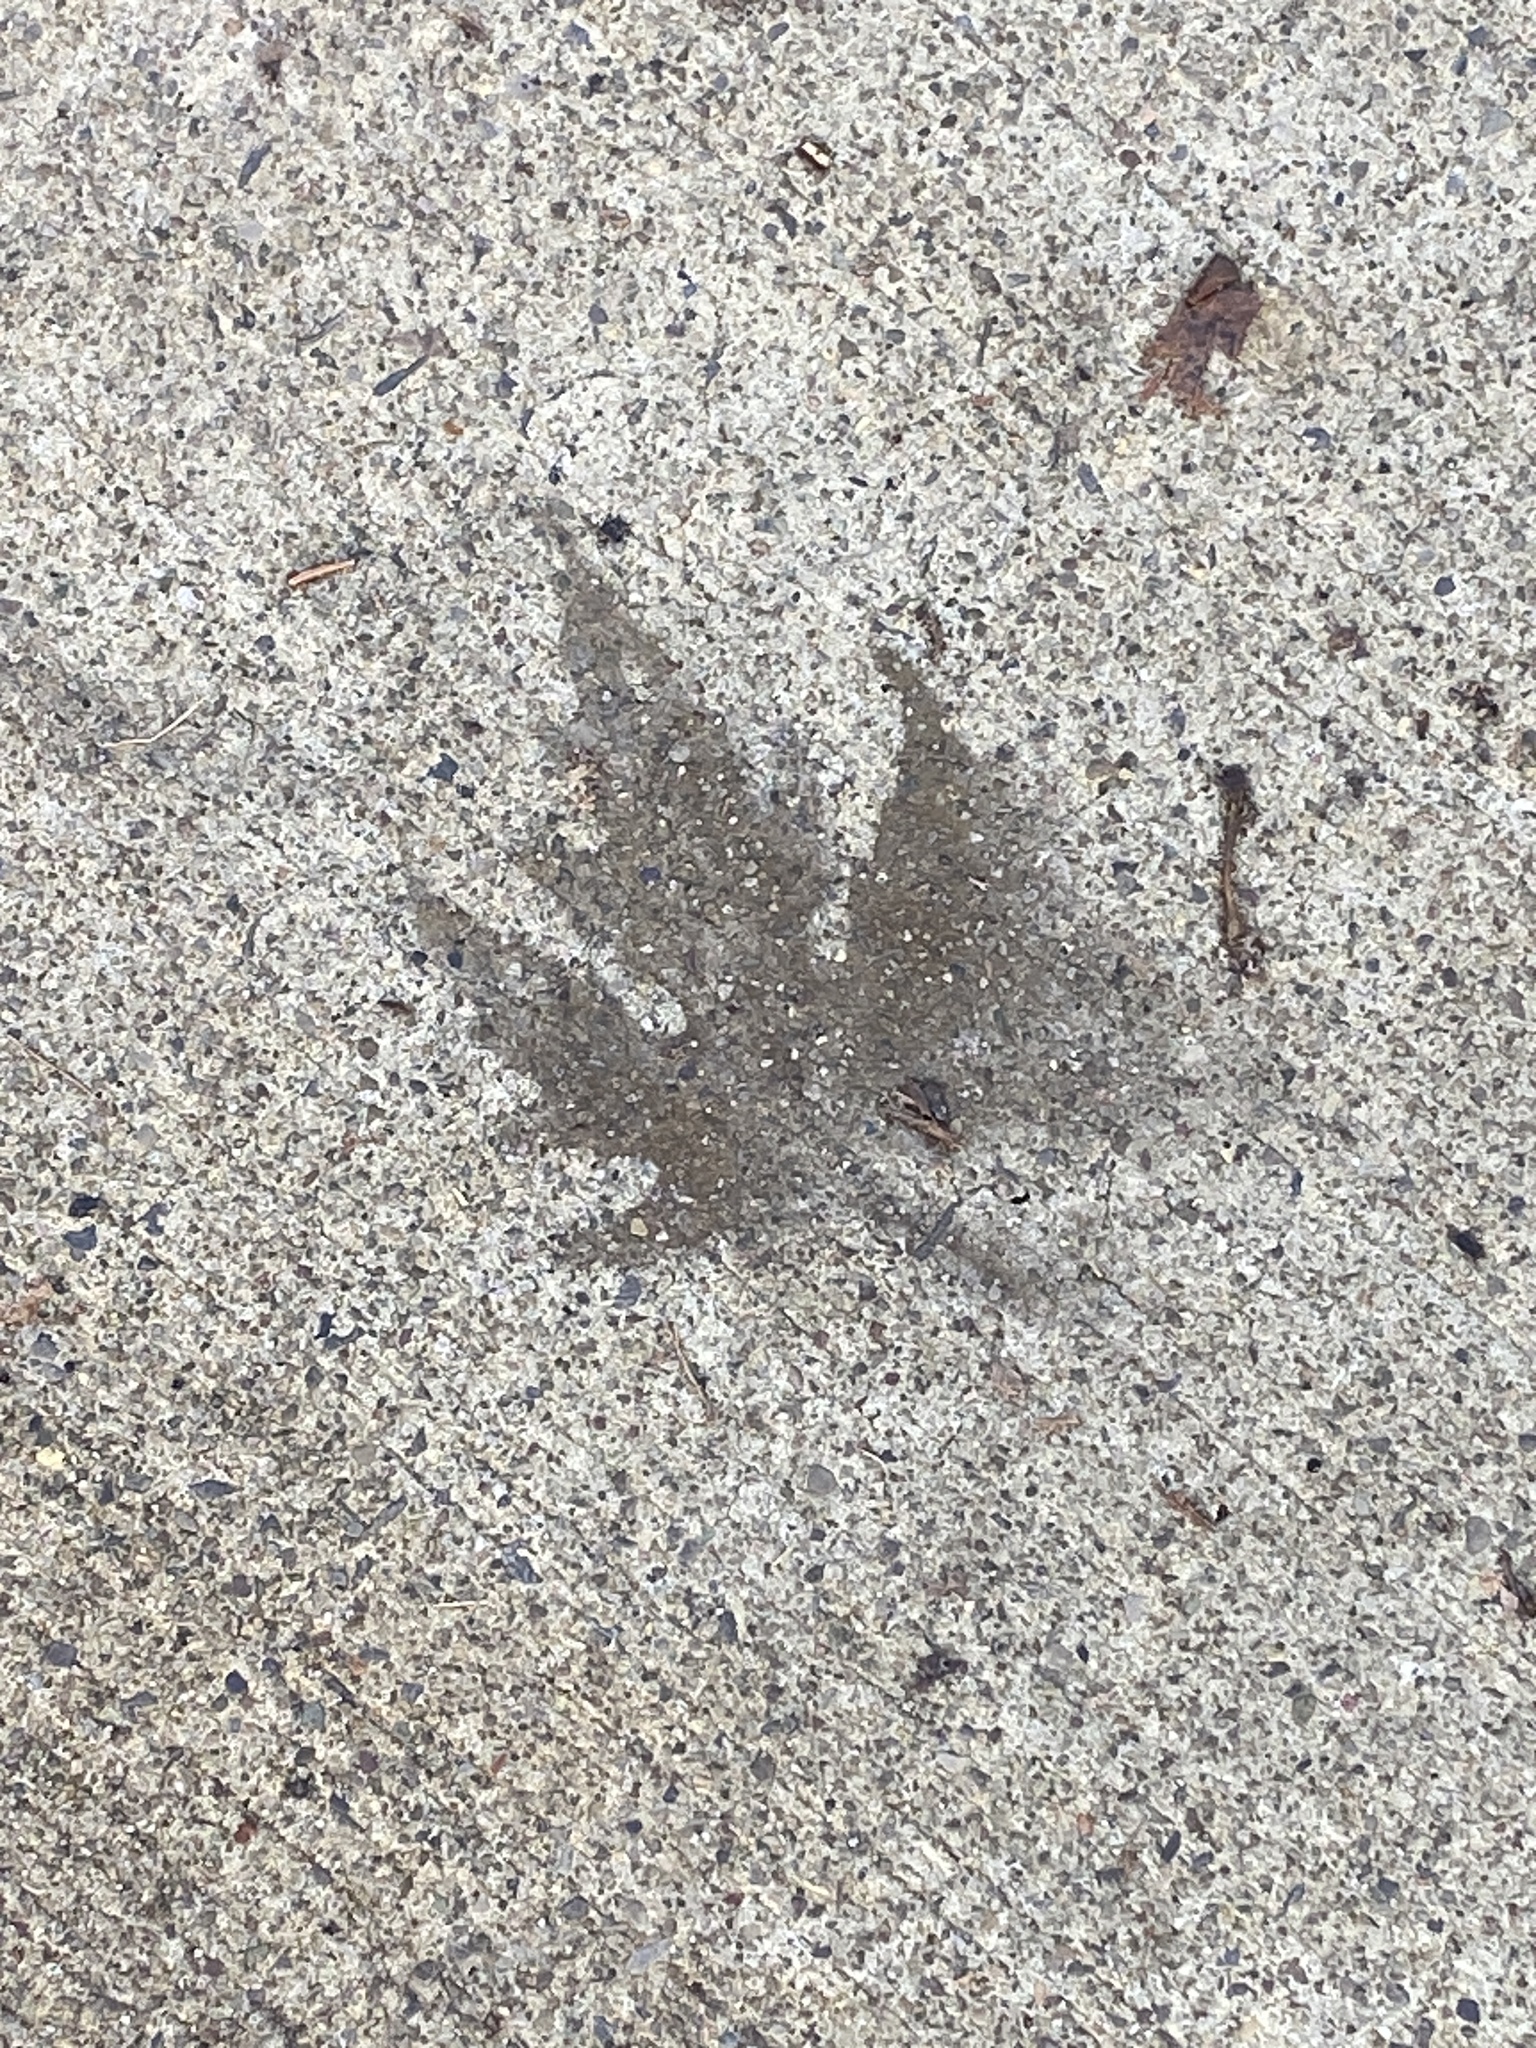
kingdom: Plantae
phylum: Tracheophyta
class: Magnoliopsida
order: Sapindales
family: Sapindaceae
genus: Acer
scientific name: Acer saccharinum
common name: Silver maple
